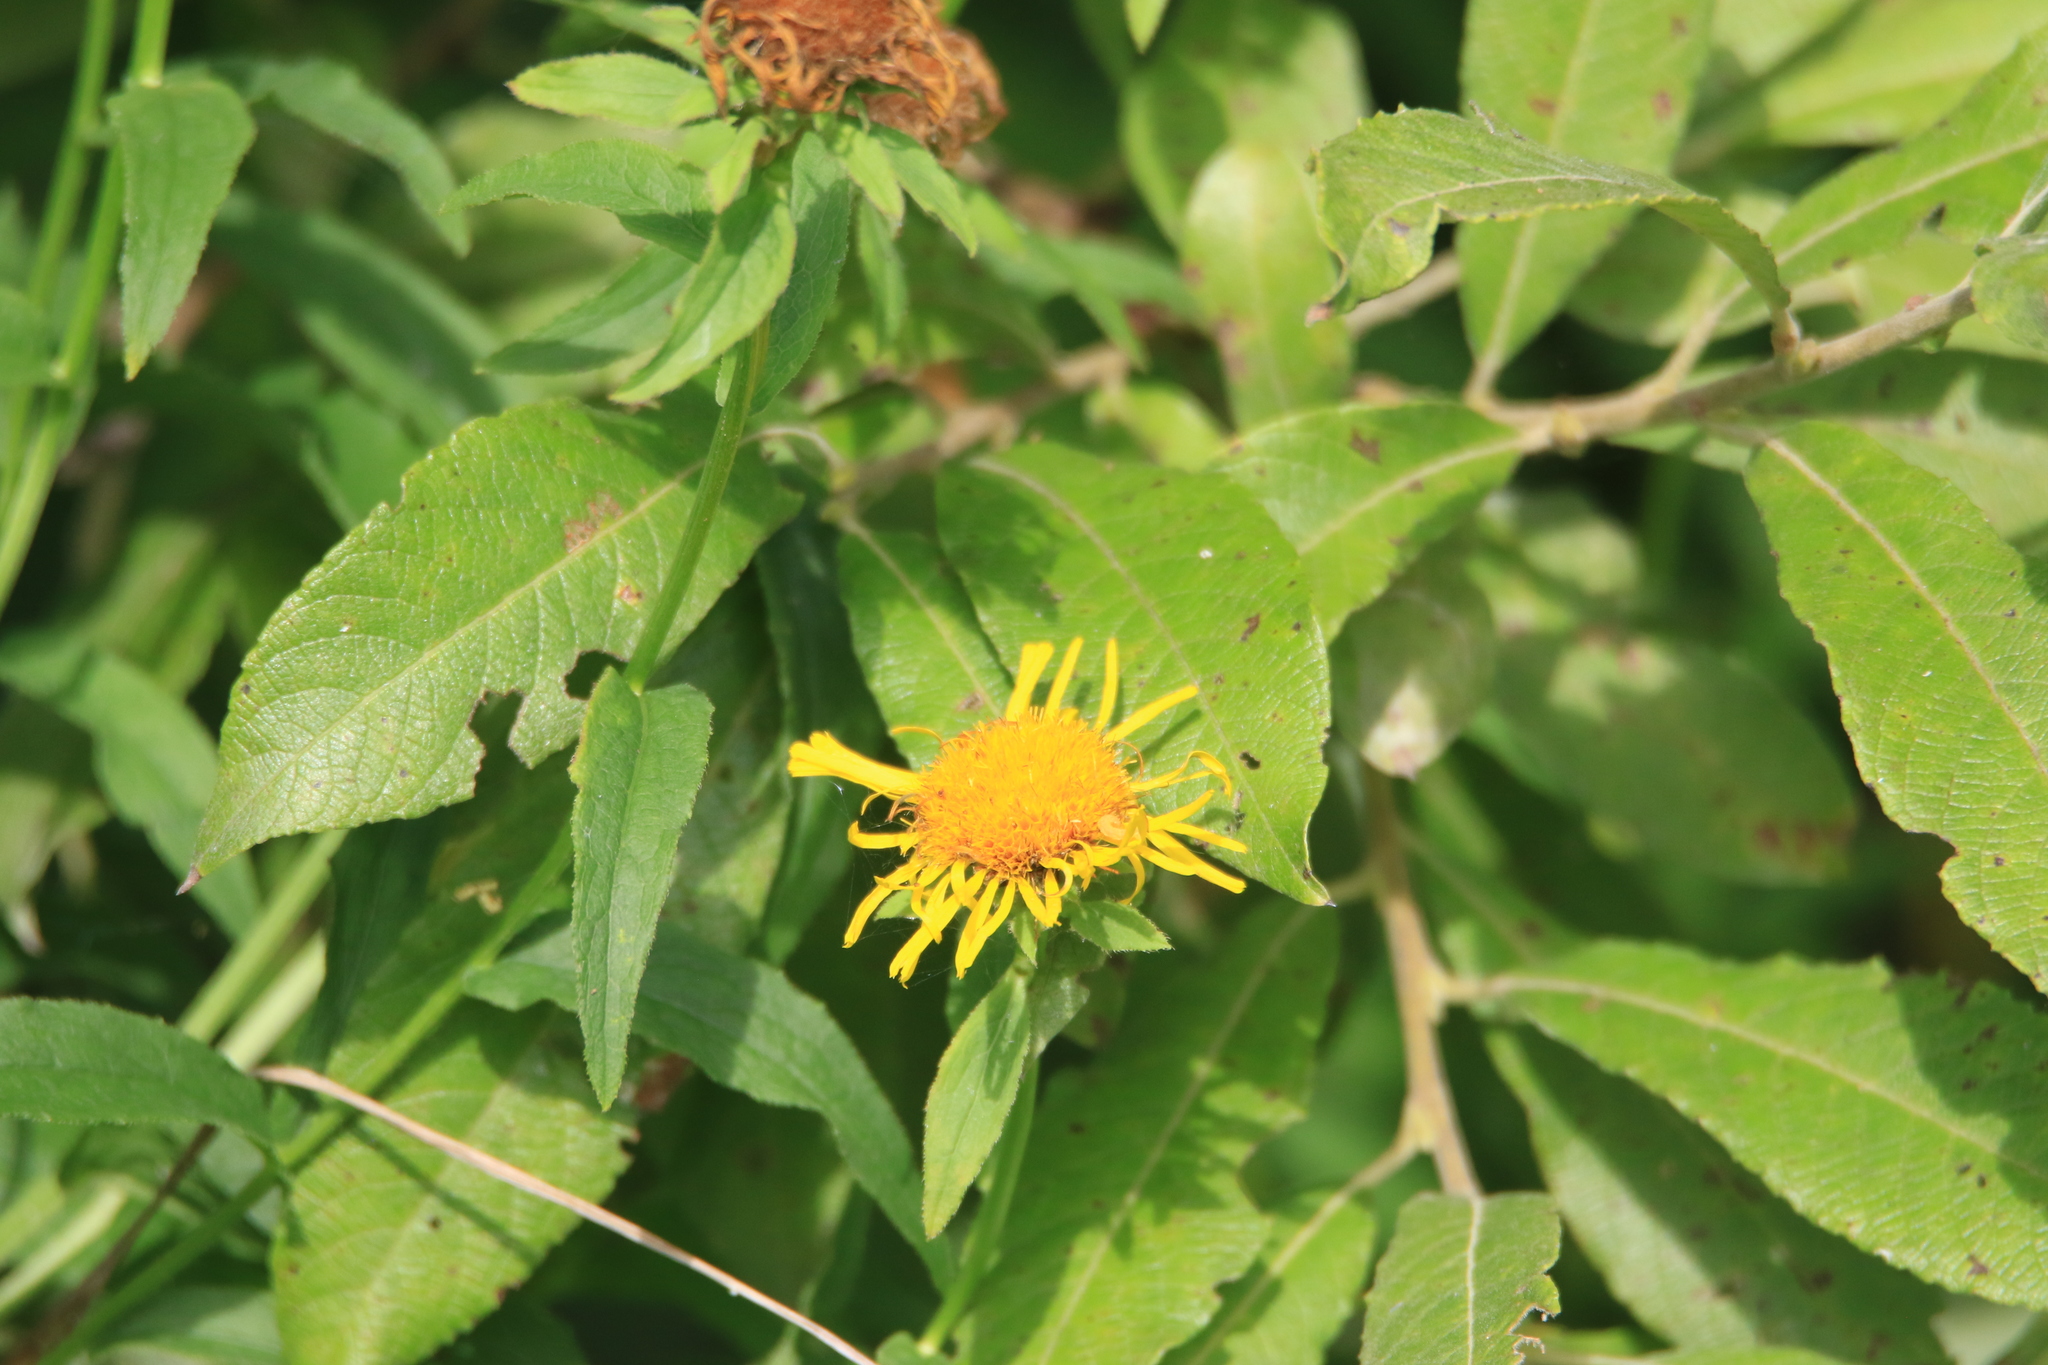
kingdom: Plantae
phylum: Tracheophyta
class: Magnoliopsida
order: Asterales
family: Asteraceae
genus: Pentanema
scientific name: Pentanema salicinum
